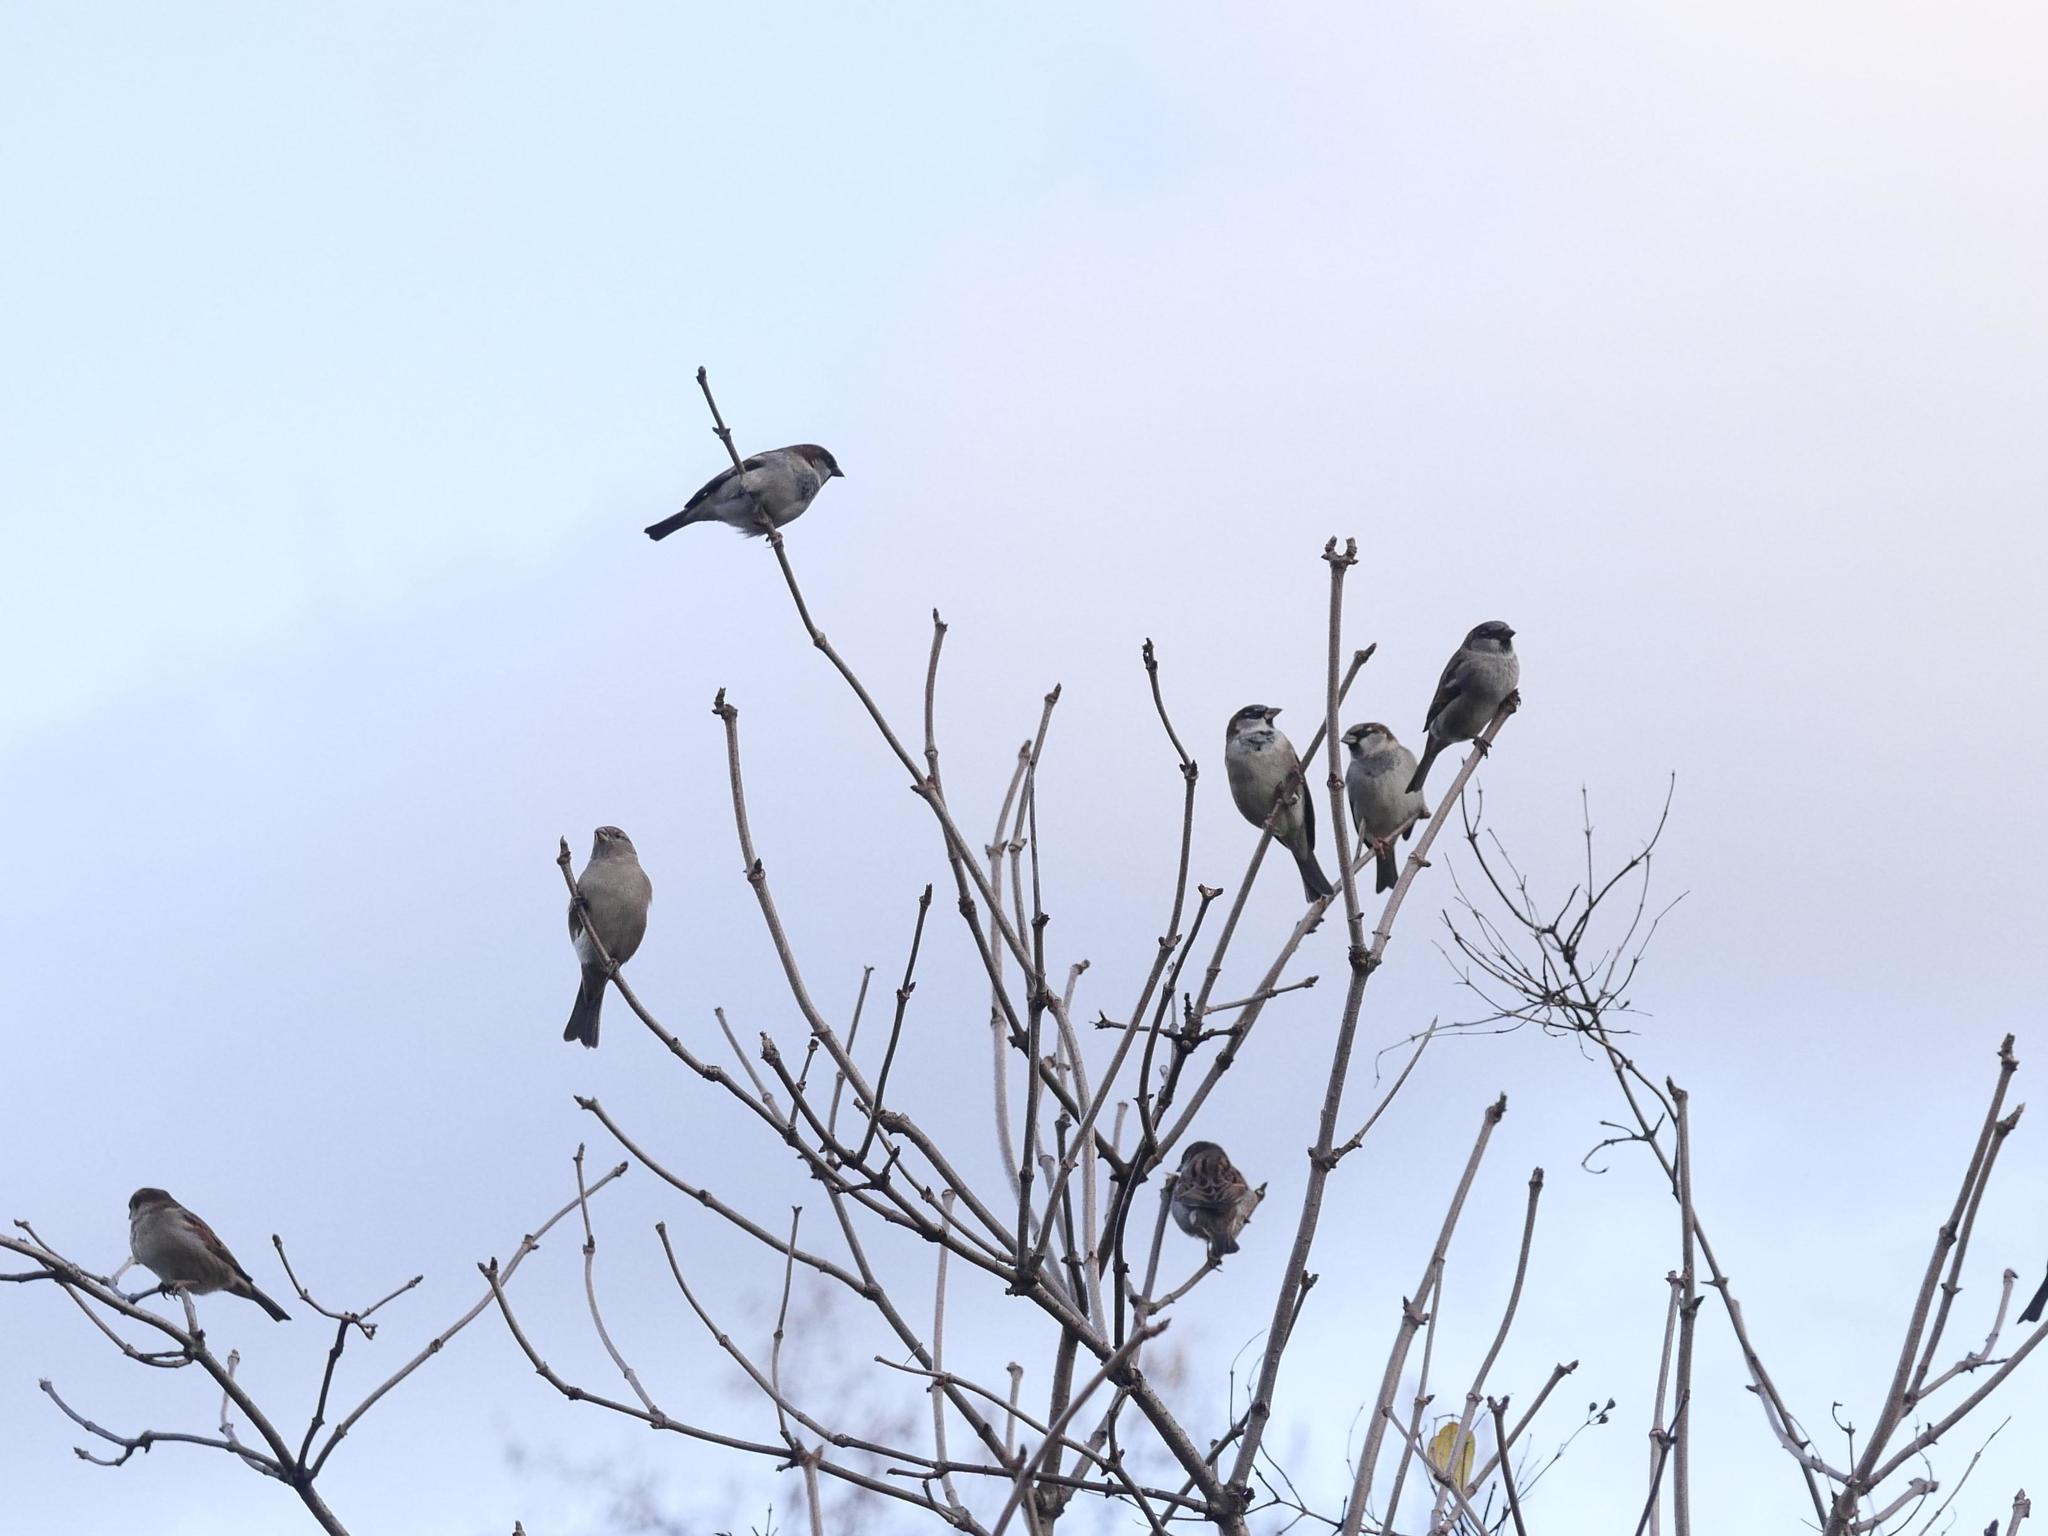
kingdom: Animalia
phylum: Chordata
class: Aves
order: Passeriformes
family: Passeridae
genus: Passer
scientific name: Passer domesticus
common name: House sparrow
